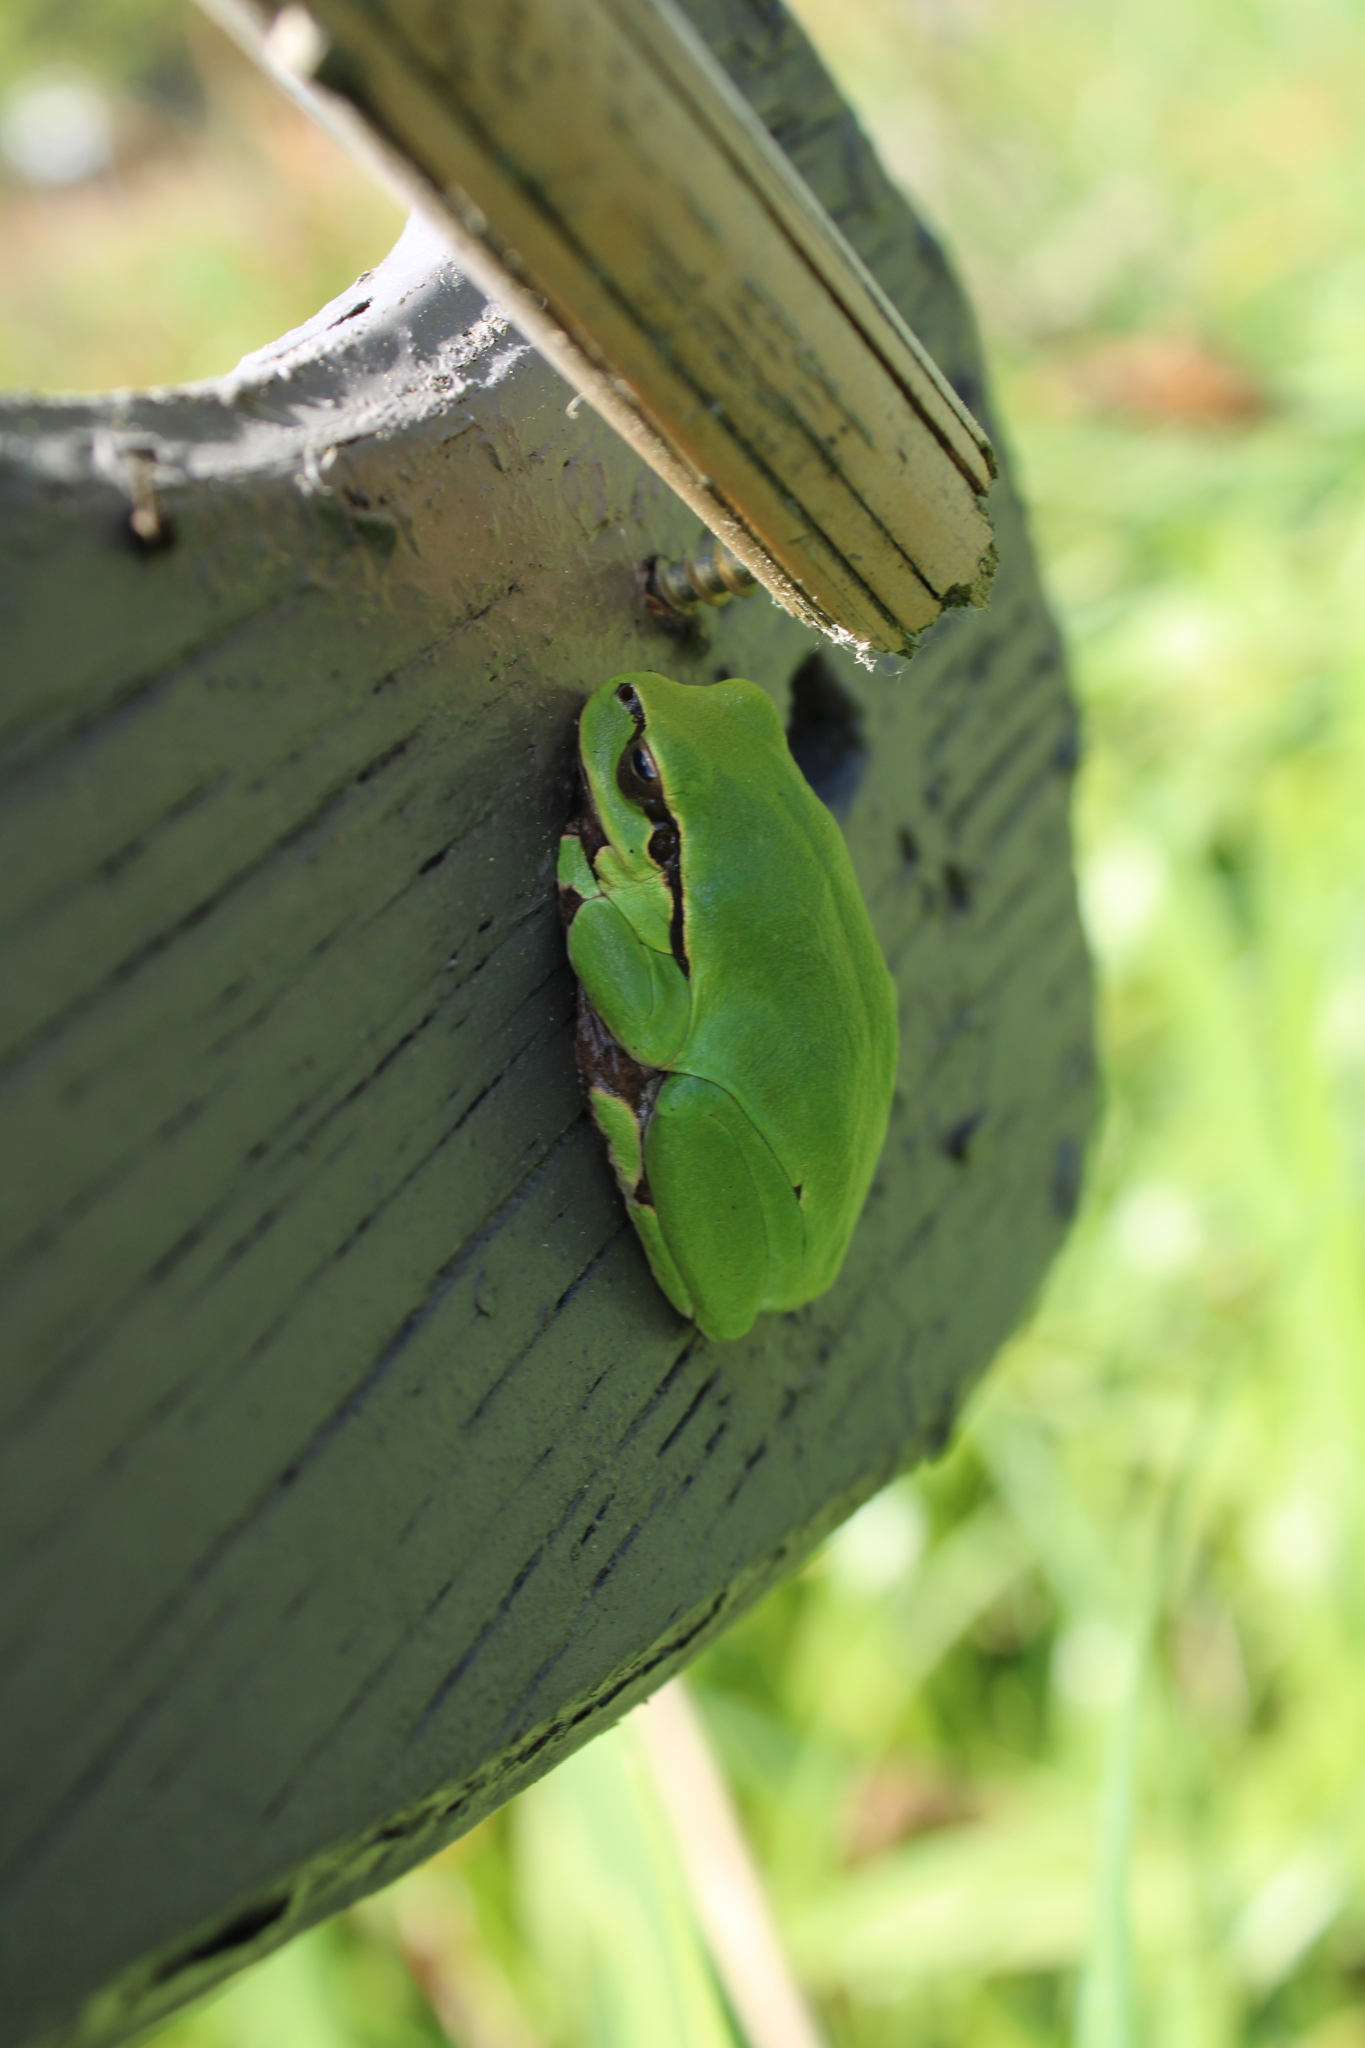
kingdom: Animalia
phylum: Chordata
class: Amphibia
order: Anura
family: Hylidae
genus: Hyla
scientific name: Hyla arborea
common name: Common tree frog
